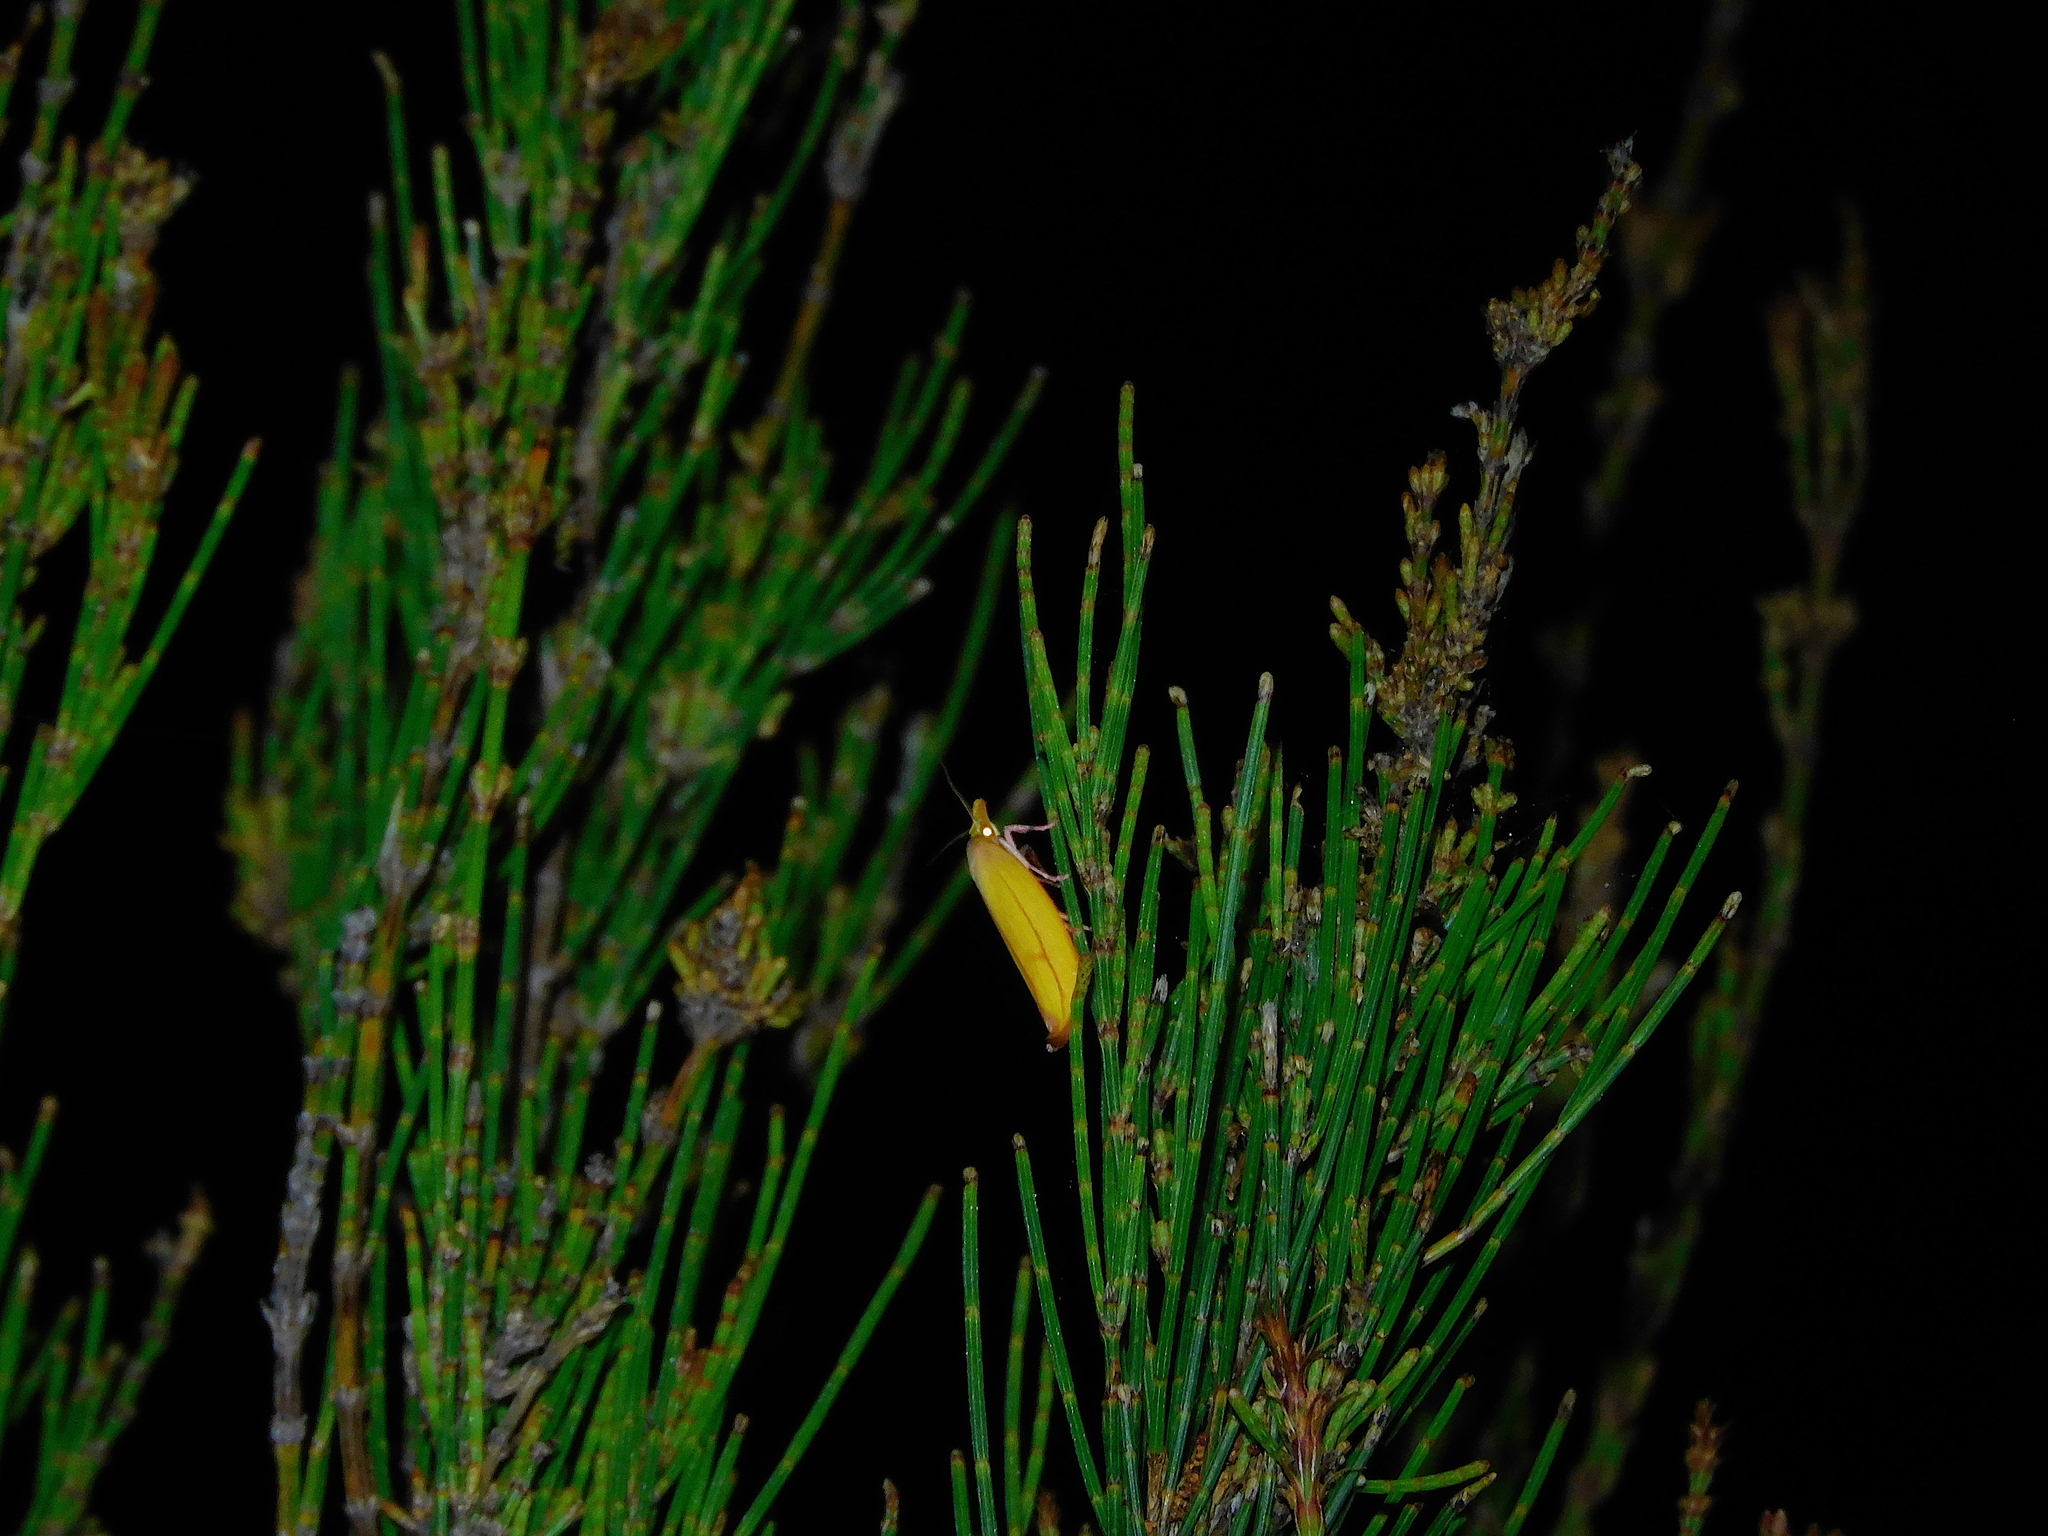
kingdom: Animalia
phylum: Arthropoda
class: Insecta
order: Lepidoptera
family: Oecophoridae
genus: Wingia
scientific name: Wingia aurata
